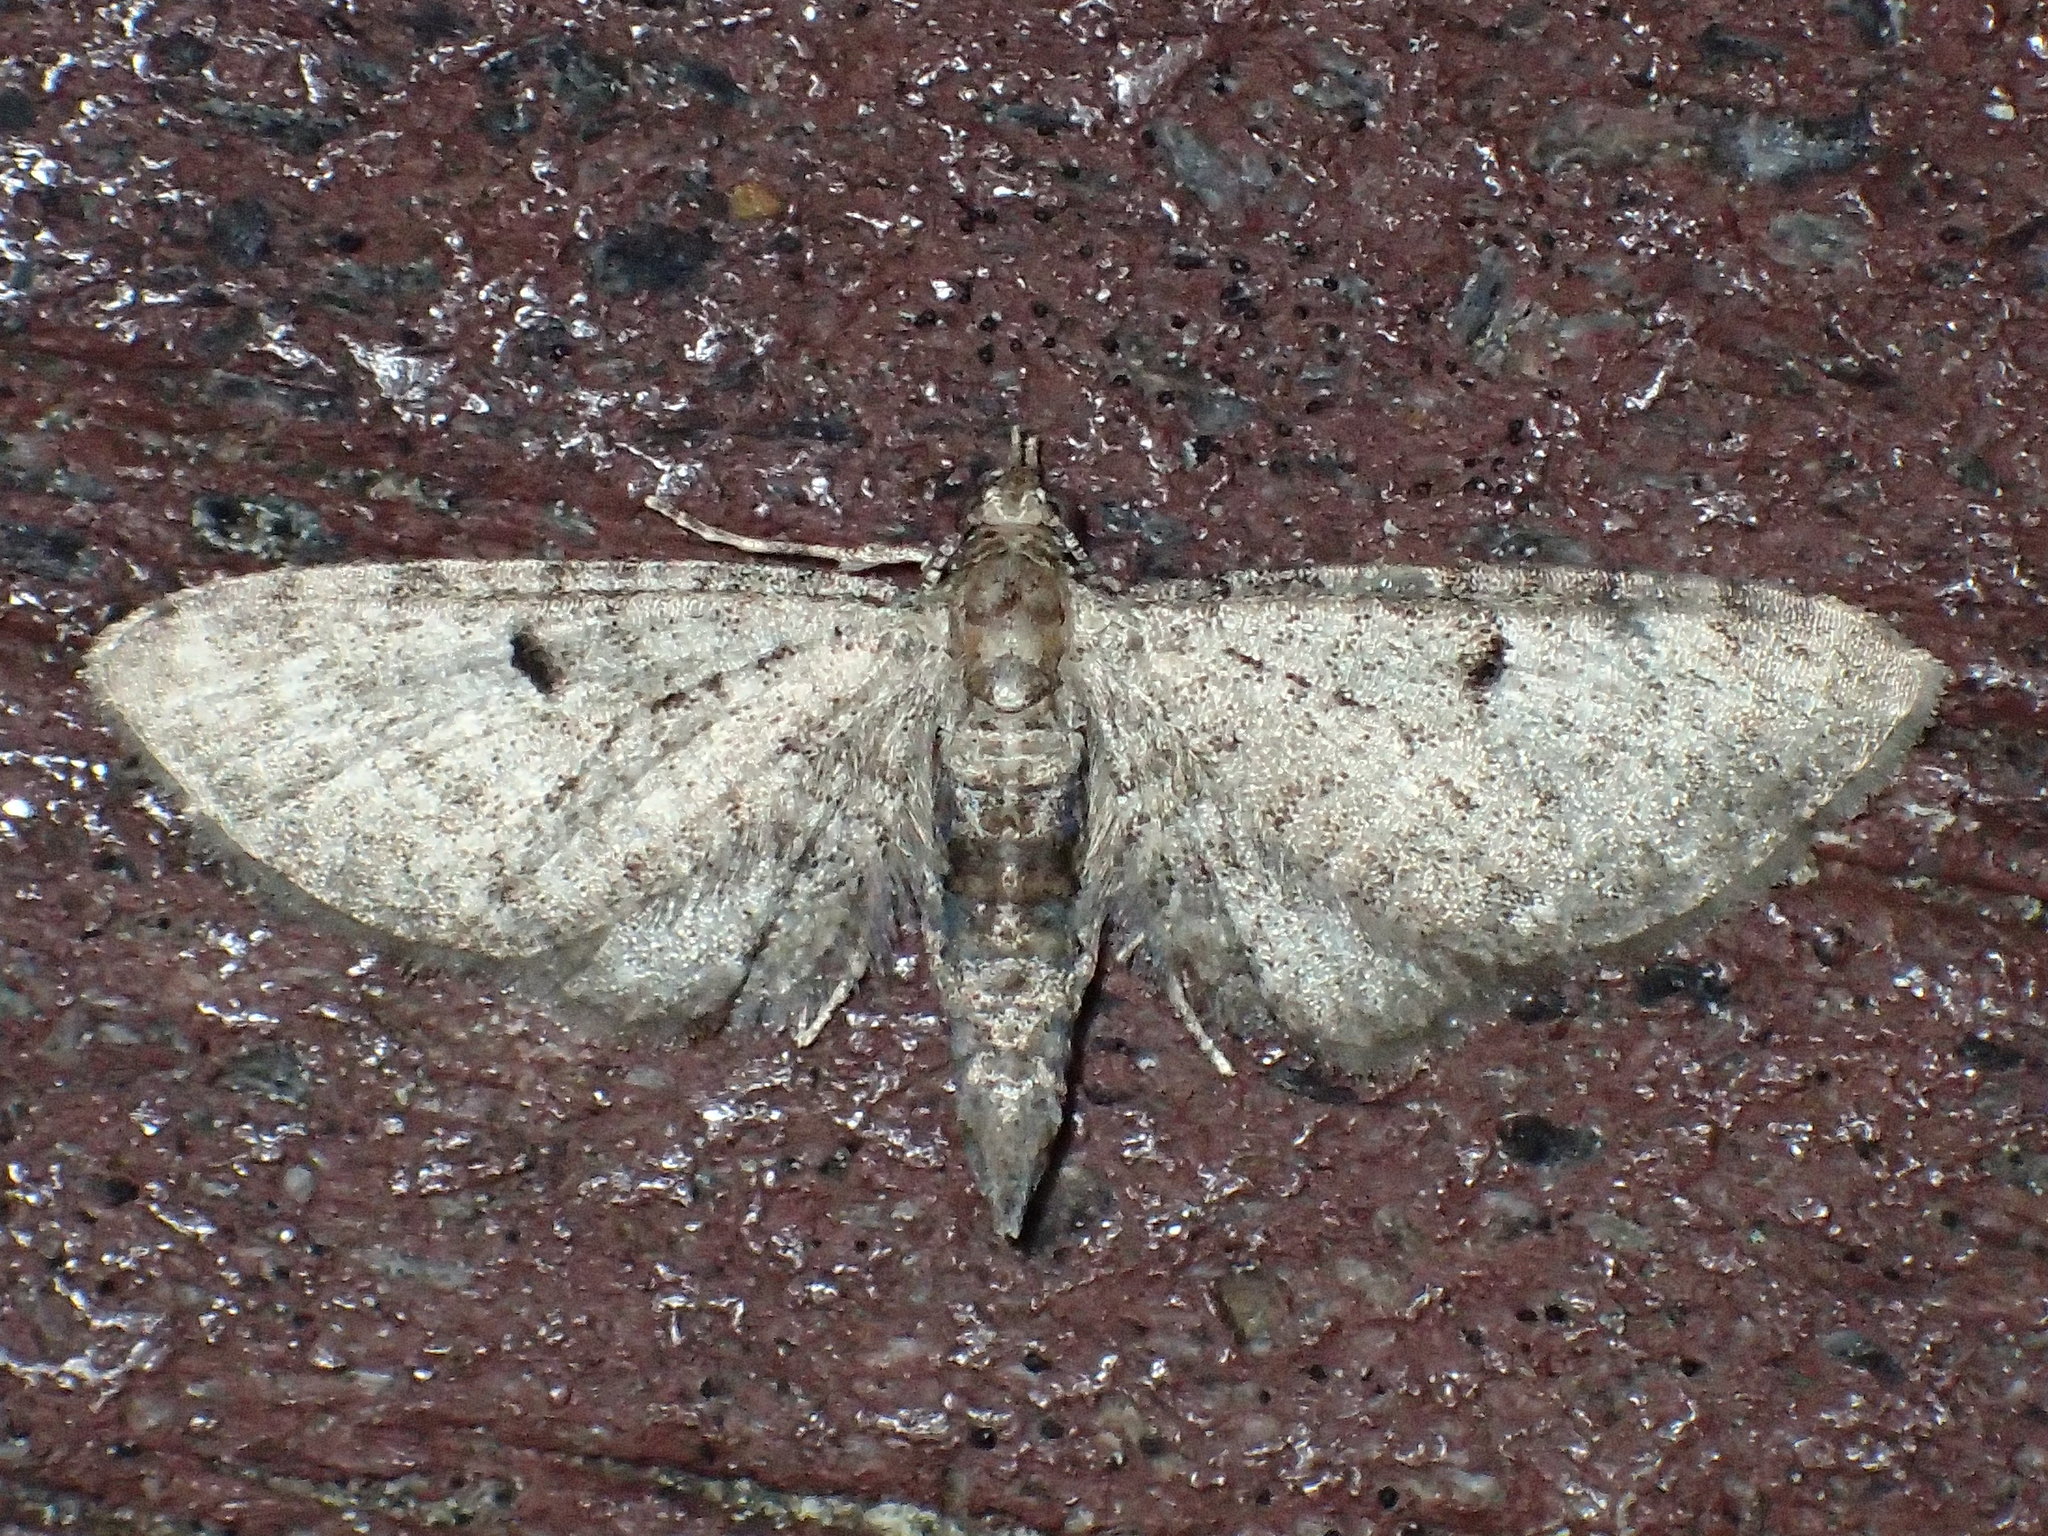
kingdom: Animalia
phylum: Arthropoda
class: Insecta
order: Lepidoptera
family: Geometridae
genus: Eupithecia
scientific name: Eupithecia miserulata
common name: Common eupithecia
